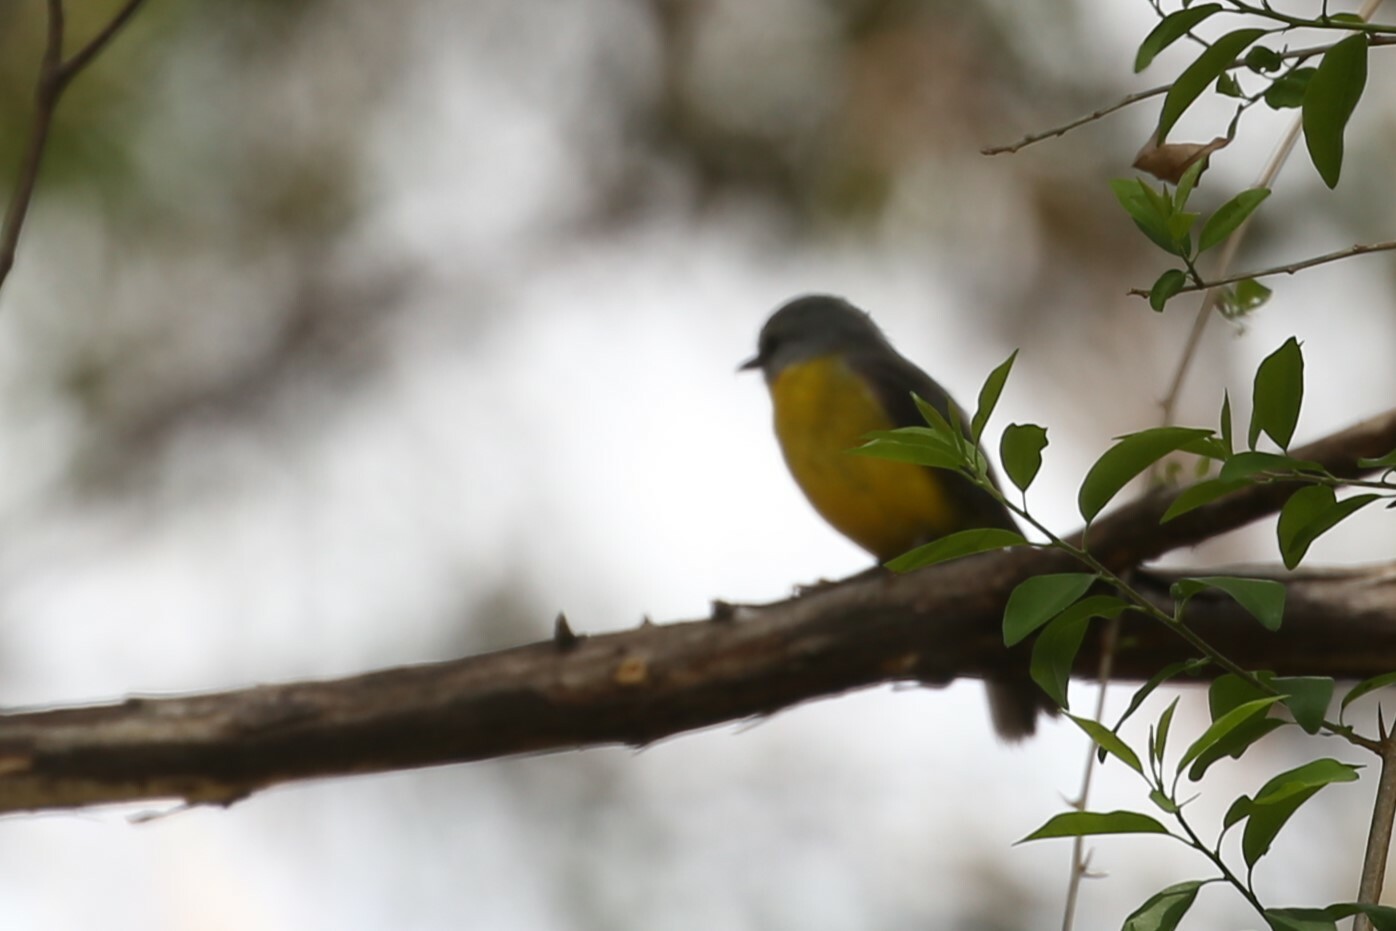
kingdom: Animalia
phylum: Chordata
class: Aves
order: Passeriformes
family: Petroicidae
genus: Eopsaltria
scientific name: Eopsaltria australis
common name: Eastern yellow robin
